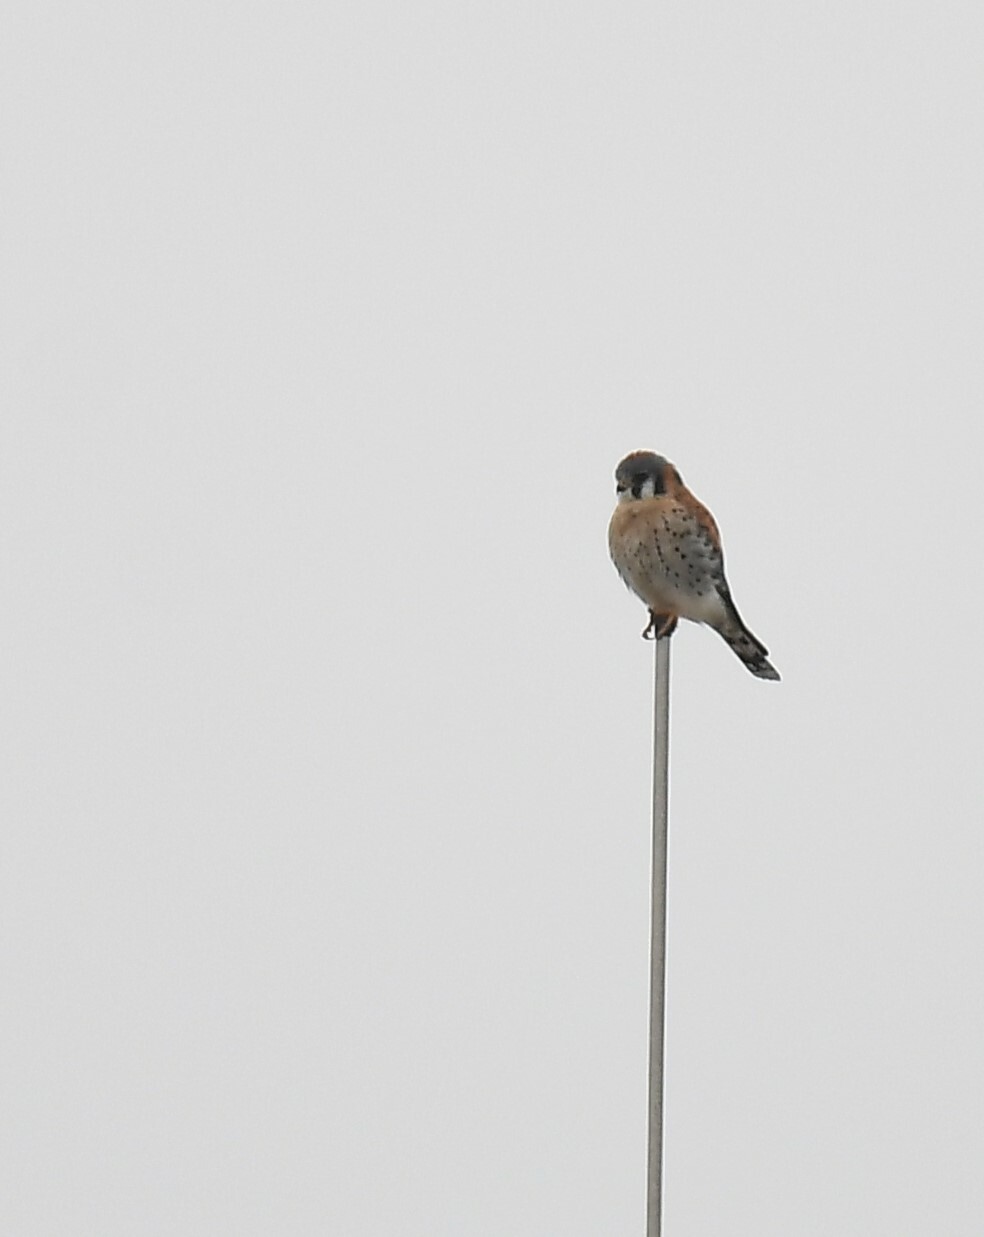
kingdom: Animalia
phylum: Chordata
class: Aves
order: Falconiformes
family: Falconidae
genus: Falco
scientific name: Falco sparverius
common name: American kestrel
